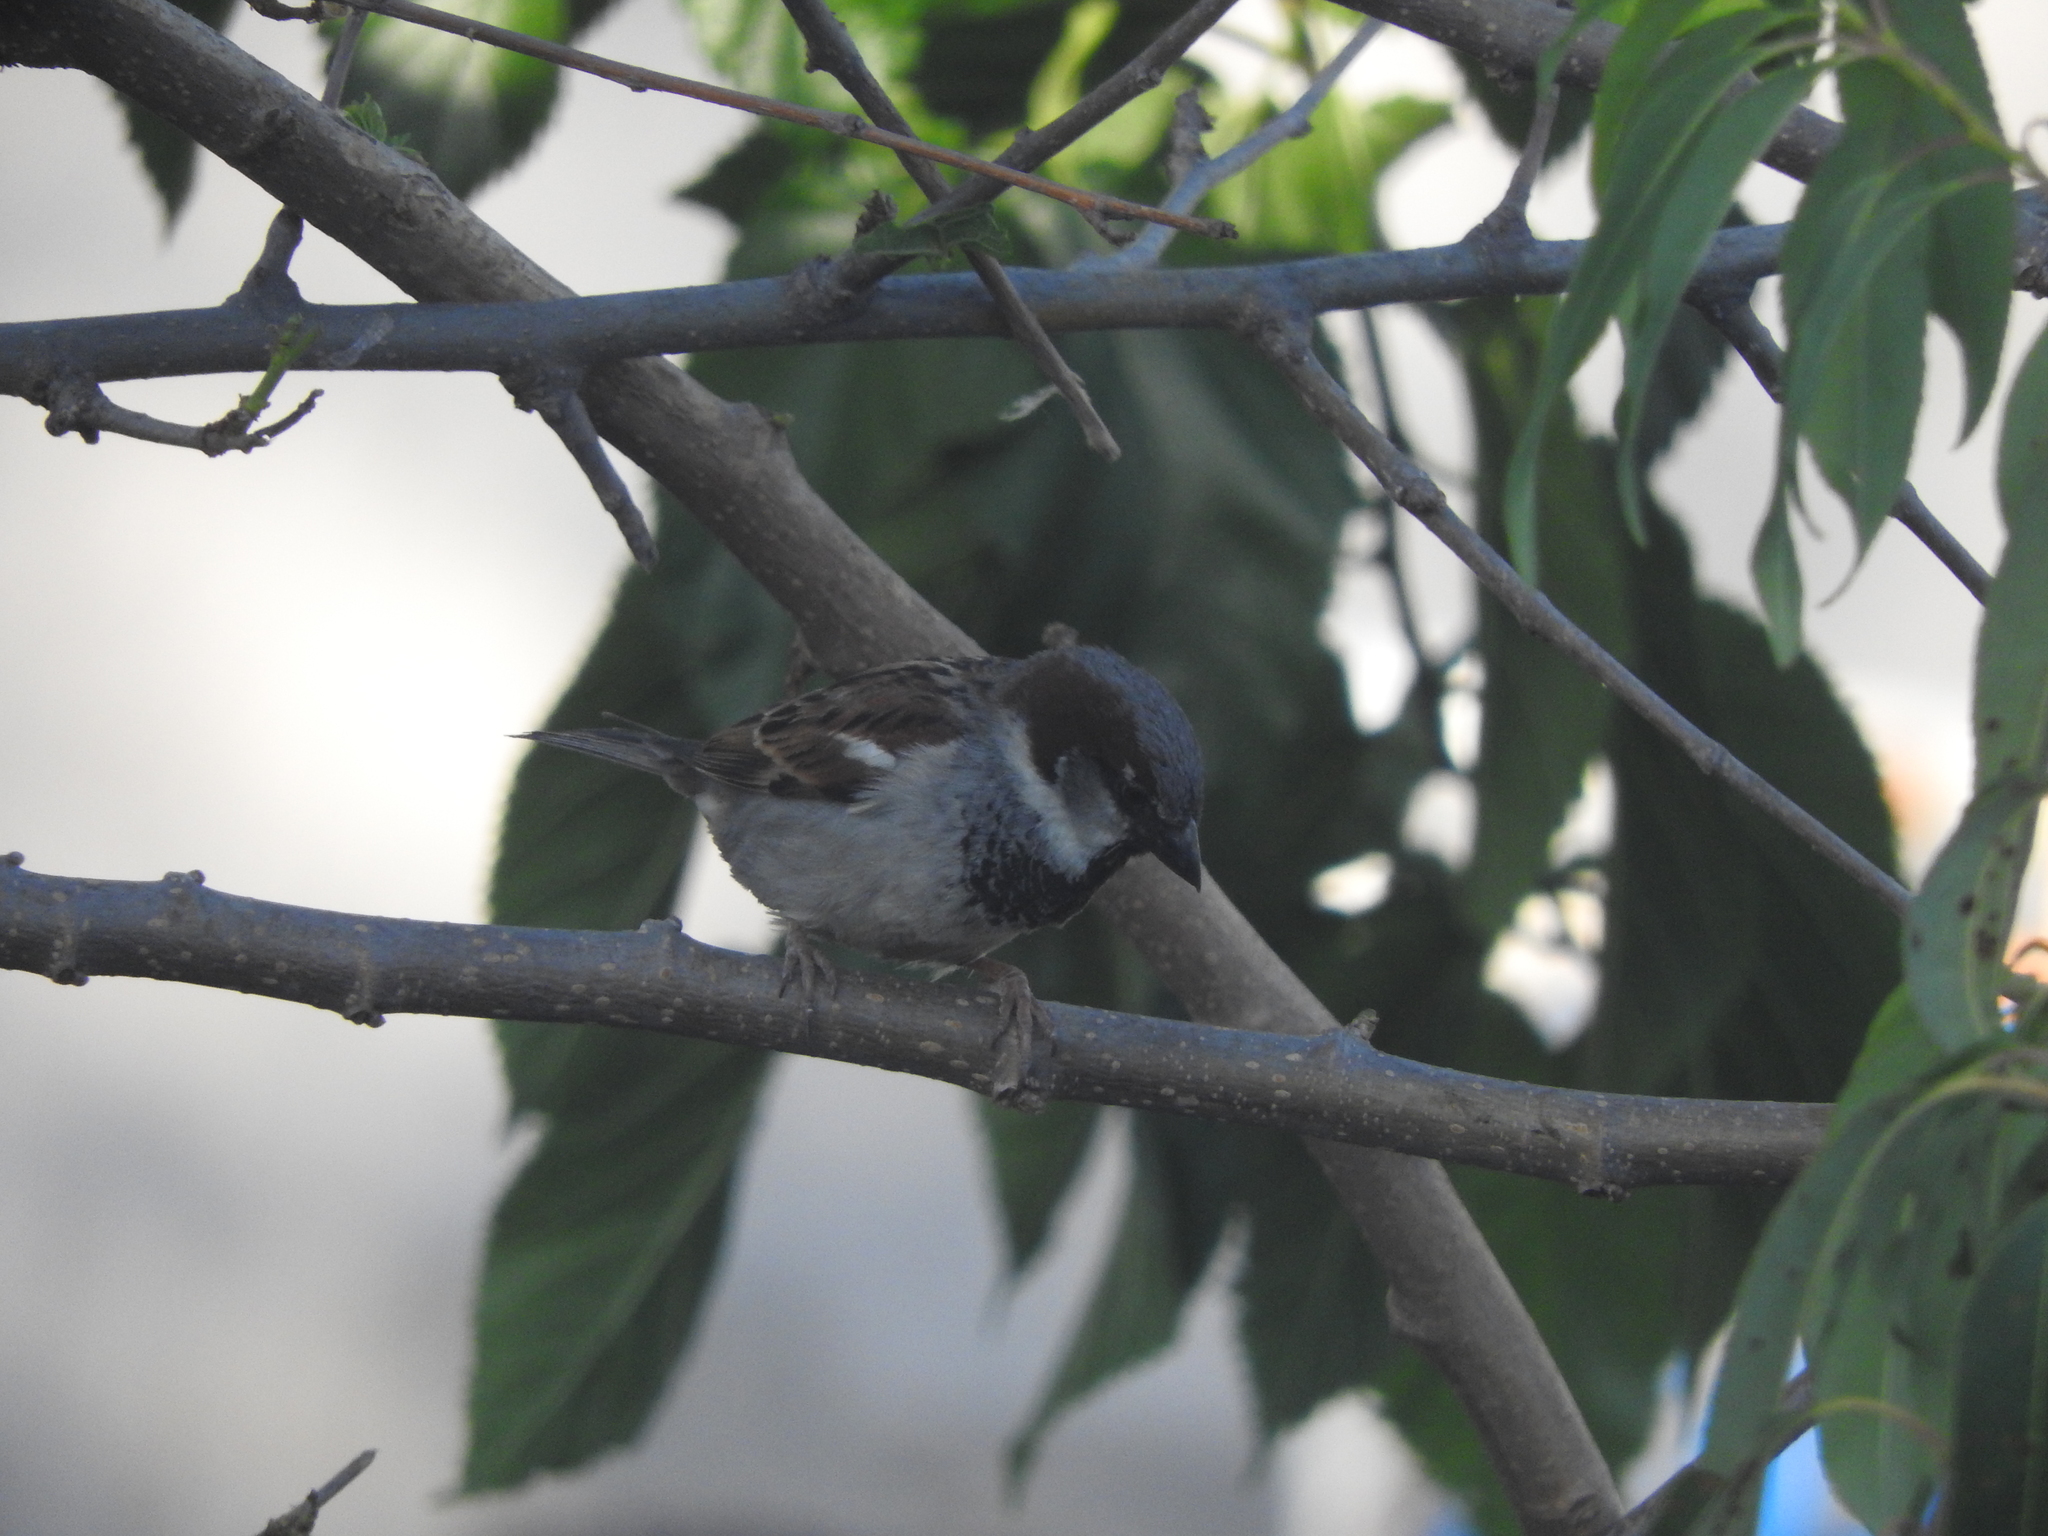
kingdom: Animalia
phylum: Chordata
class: Aves
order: Passeriformes
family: Passeridae
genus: Passer
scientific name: Passer domesticus
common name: House sparrow
